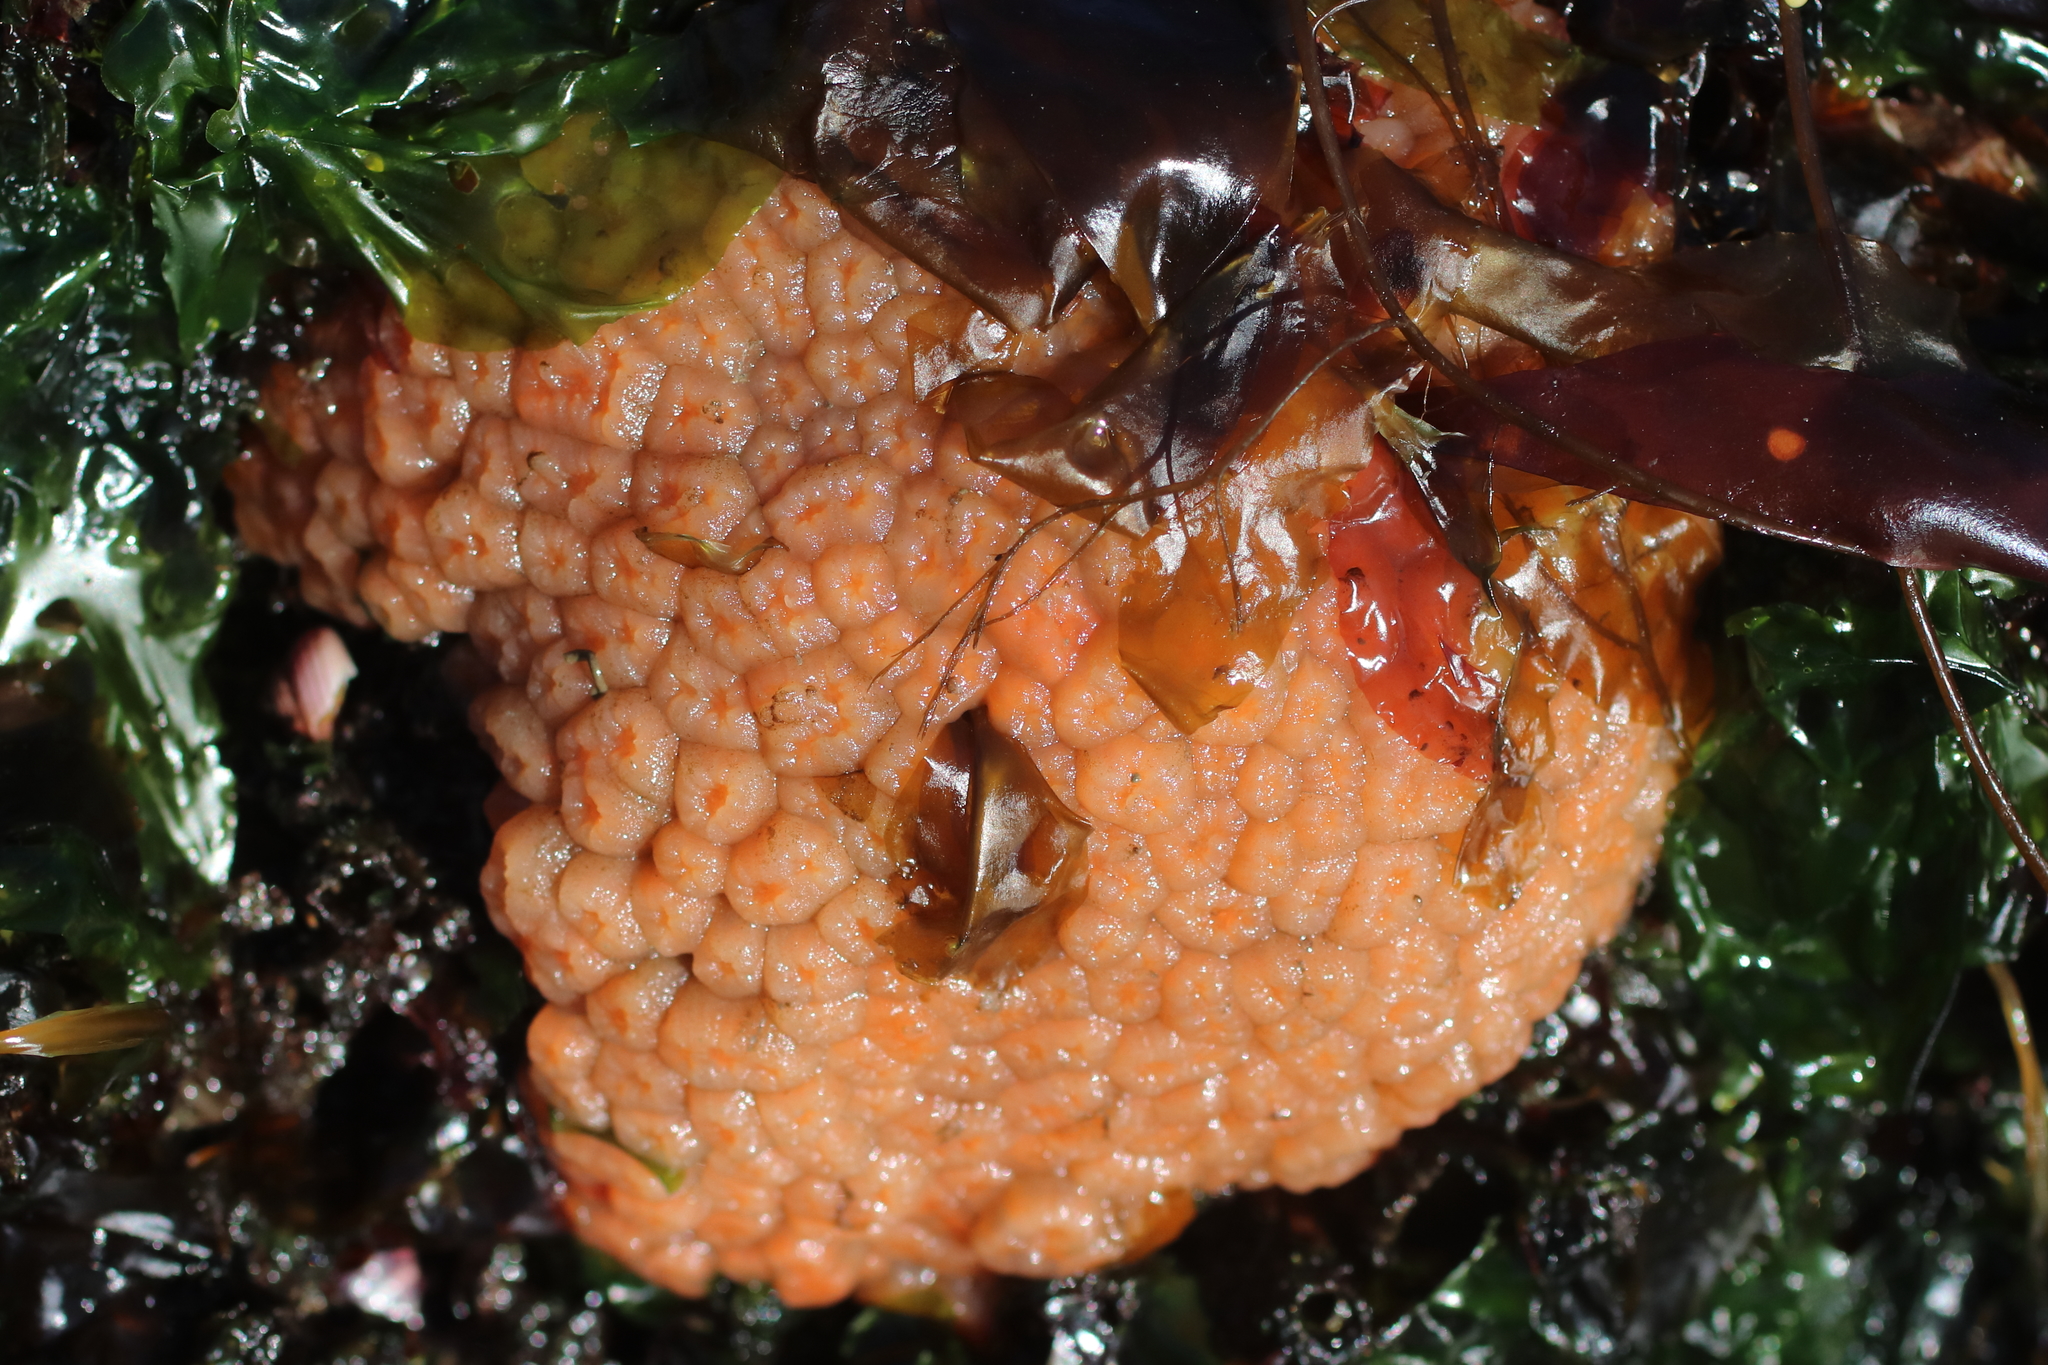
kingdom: Animalia
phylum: Chordata
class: Ascidiacea
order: Aplousobranchia
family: Polyclinidae
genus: Aplidium
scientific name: Aplidium coei
